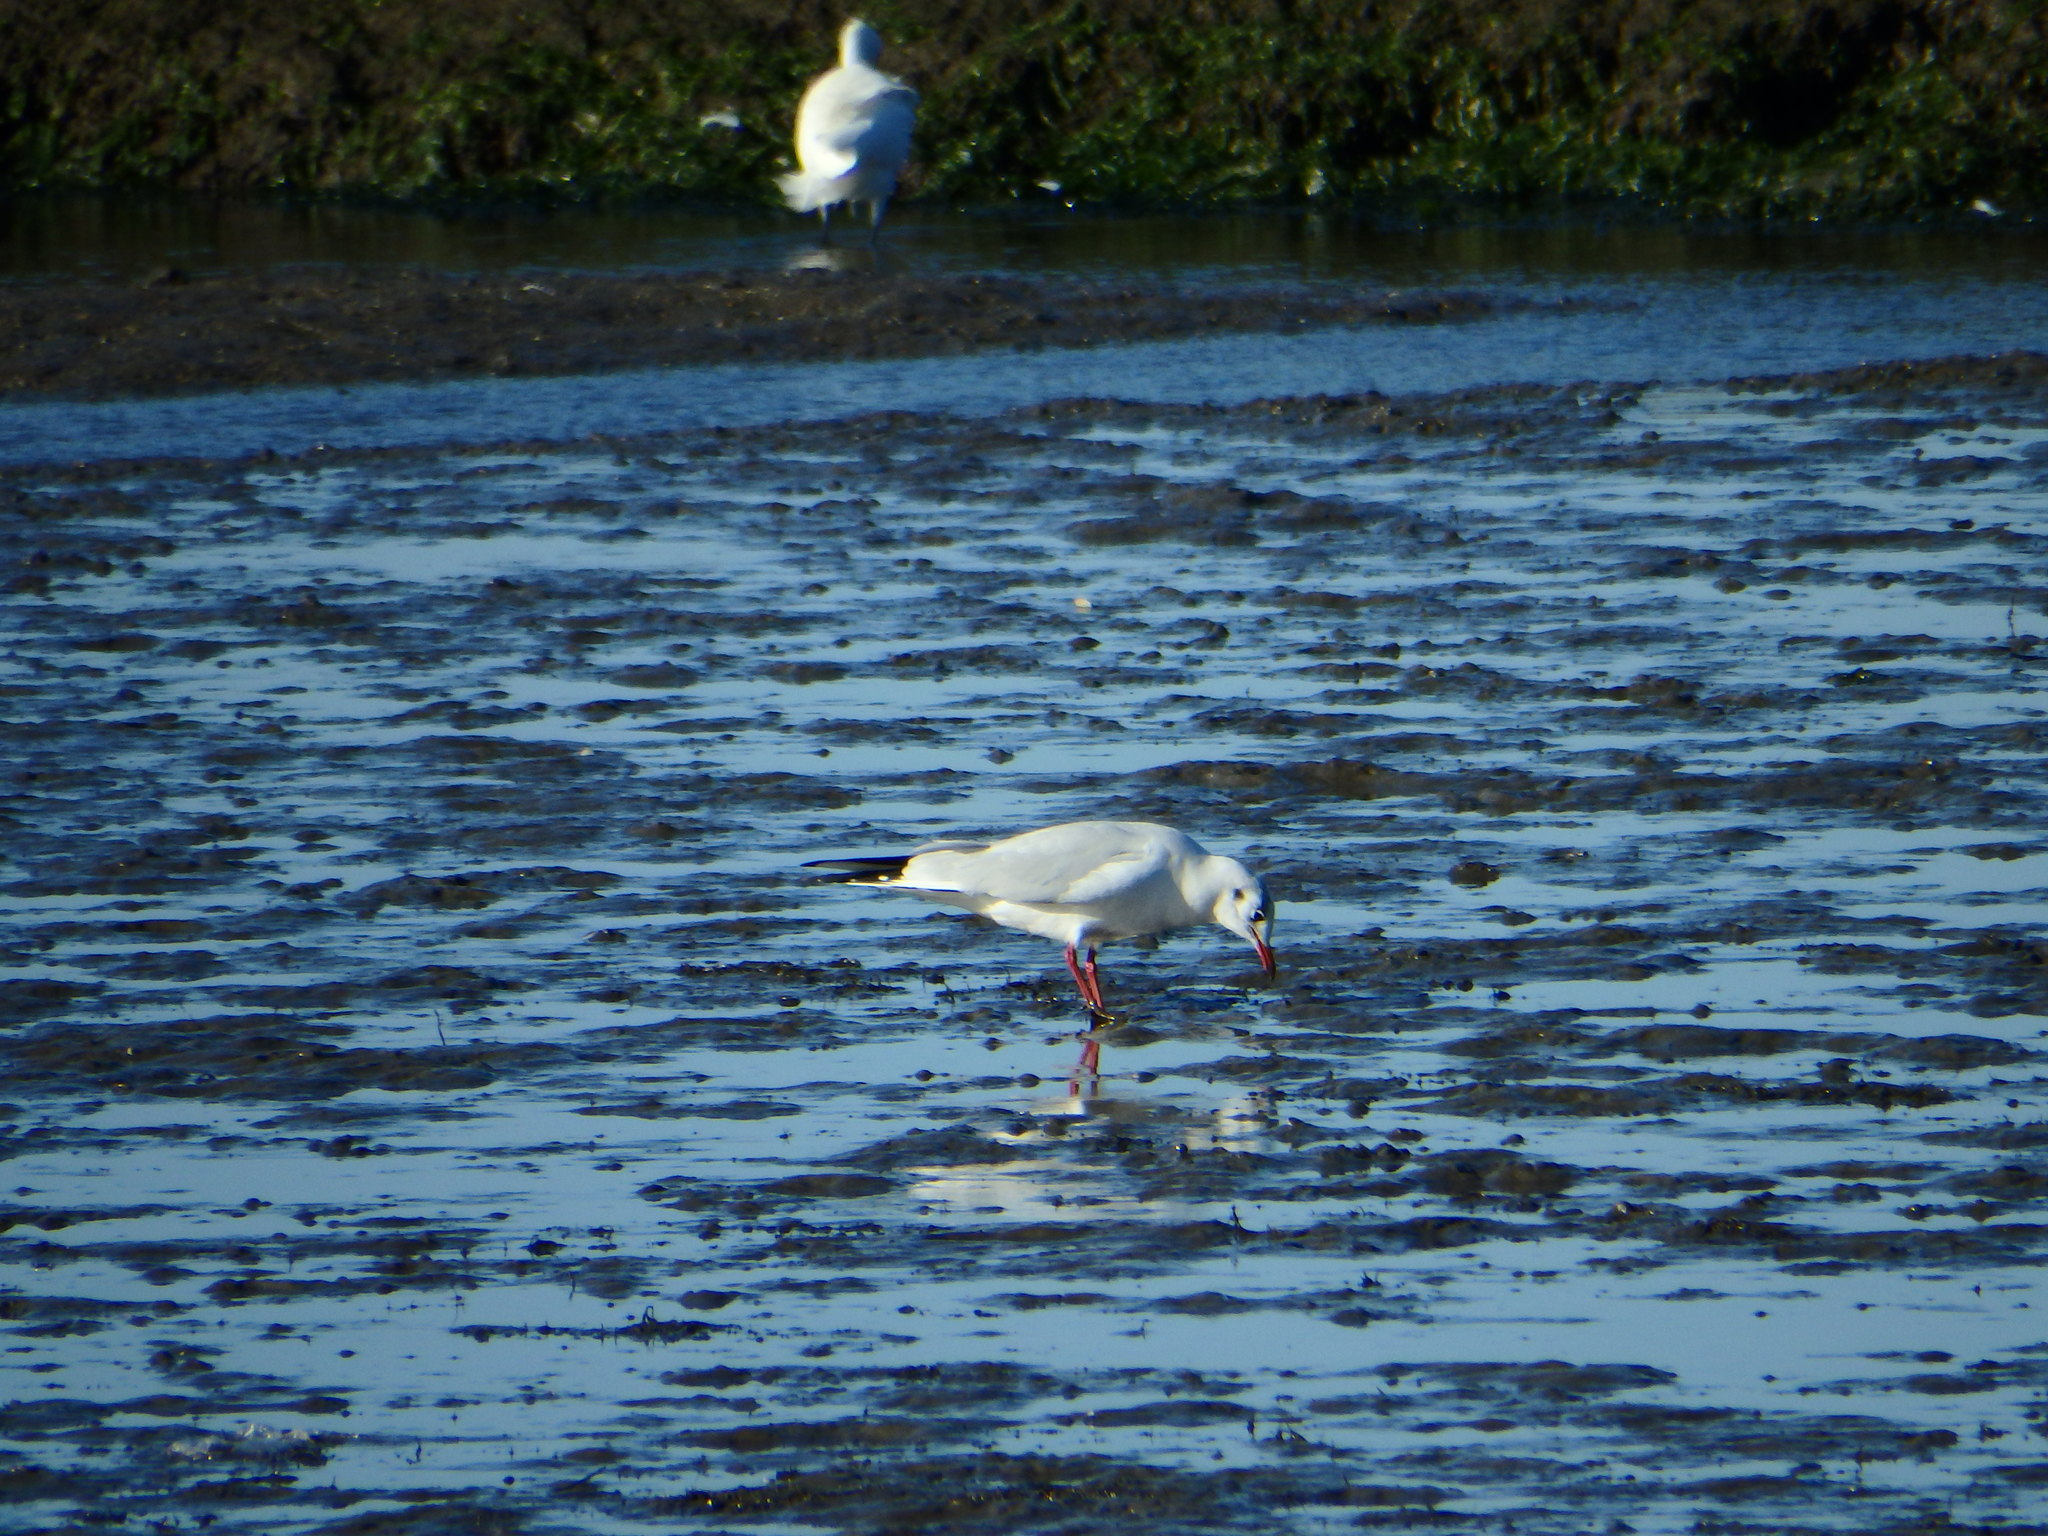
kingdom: Animalia
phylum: Chordata
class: Aves
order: Charadriiformes
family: Laridae
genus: Chroicocephalus
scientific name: Chroicocephalus ridibundus
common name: Black-headed gull
